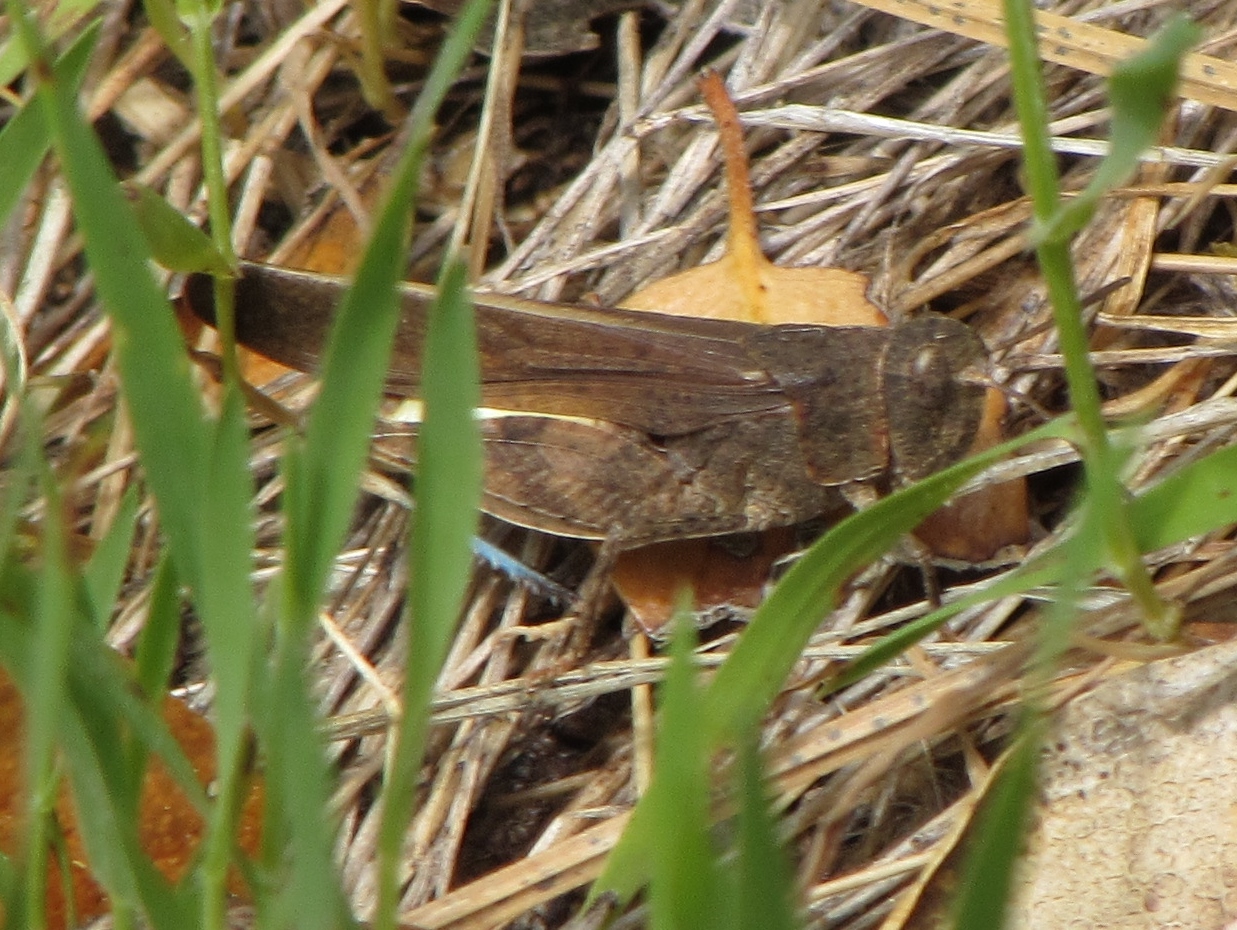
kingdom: Animalia
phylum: Arthropoda
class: Insecta
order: Orthoptera
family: Acrididae
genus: Arphia
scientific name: Arphia behrensi
